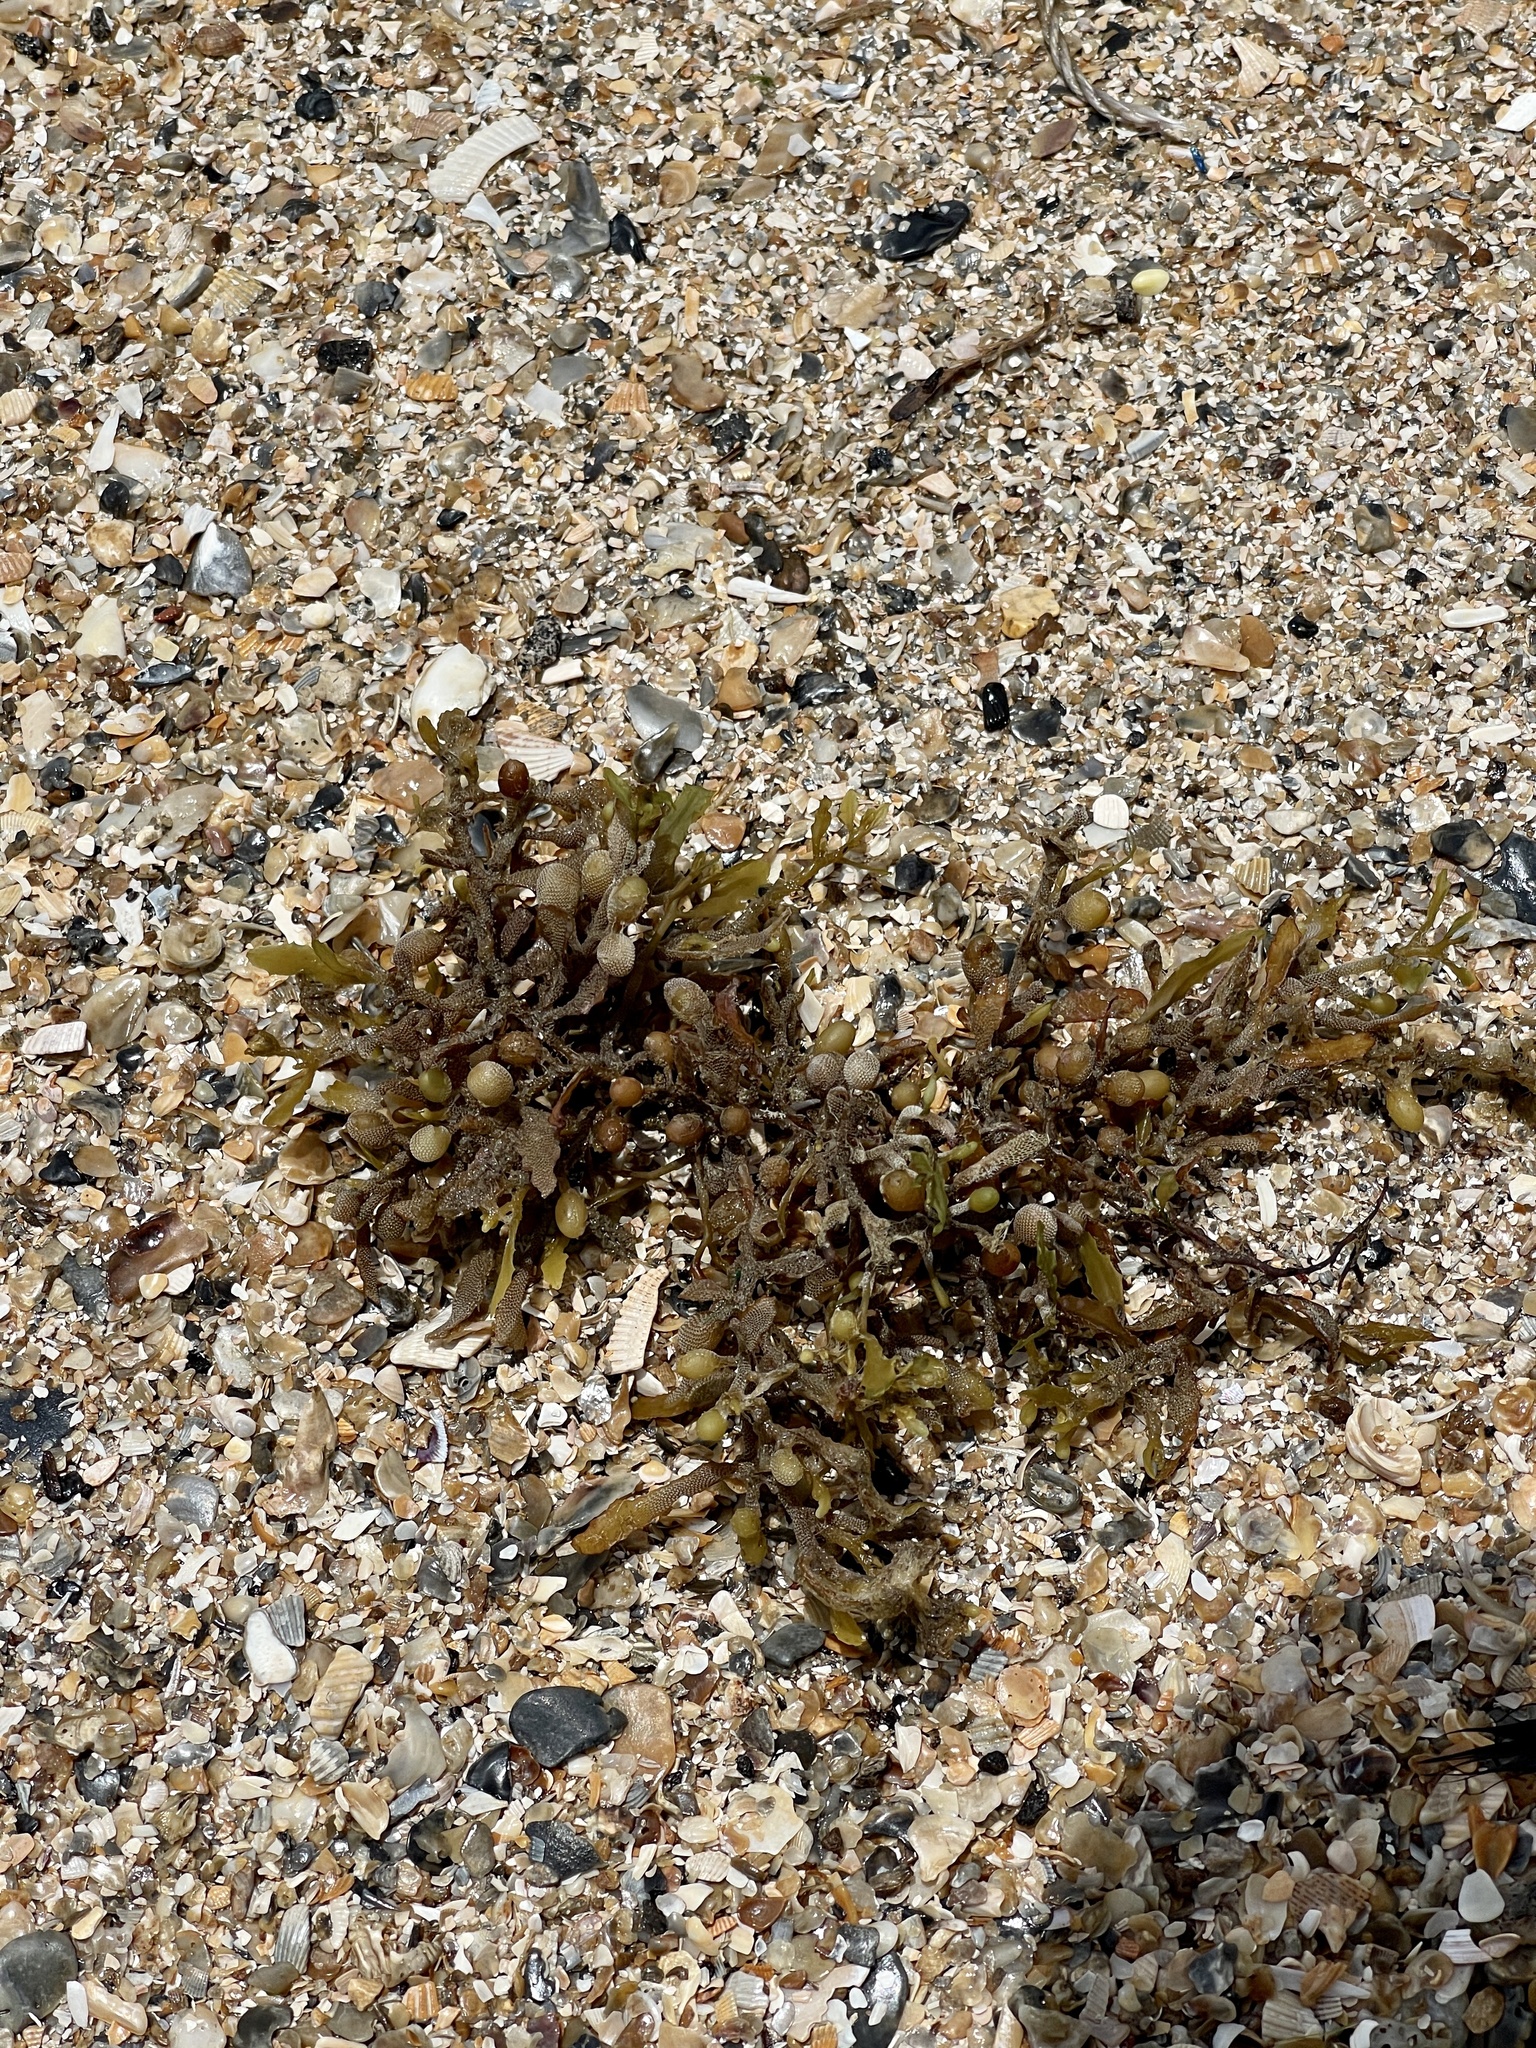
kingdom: Chromista
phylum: Ochrophyta
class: Phaeophyceae
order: Fucales
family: Sargassaceae
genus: Sargassum
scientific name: Sargassum fluitans
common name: Sargassum seaweed
